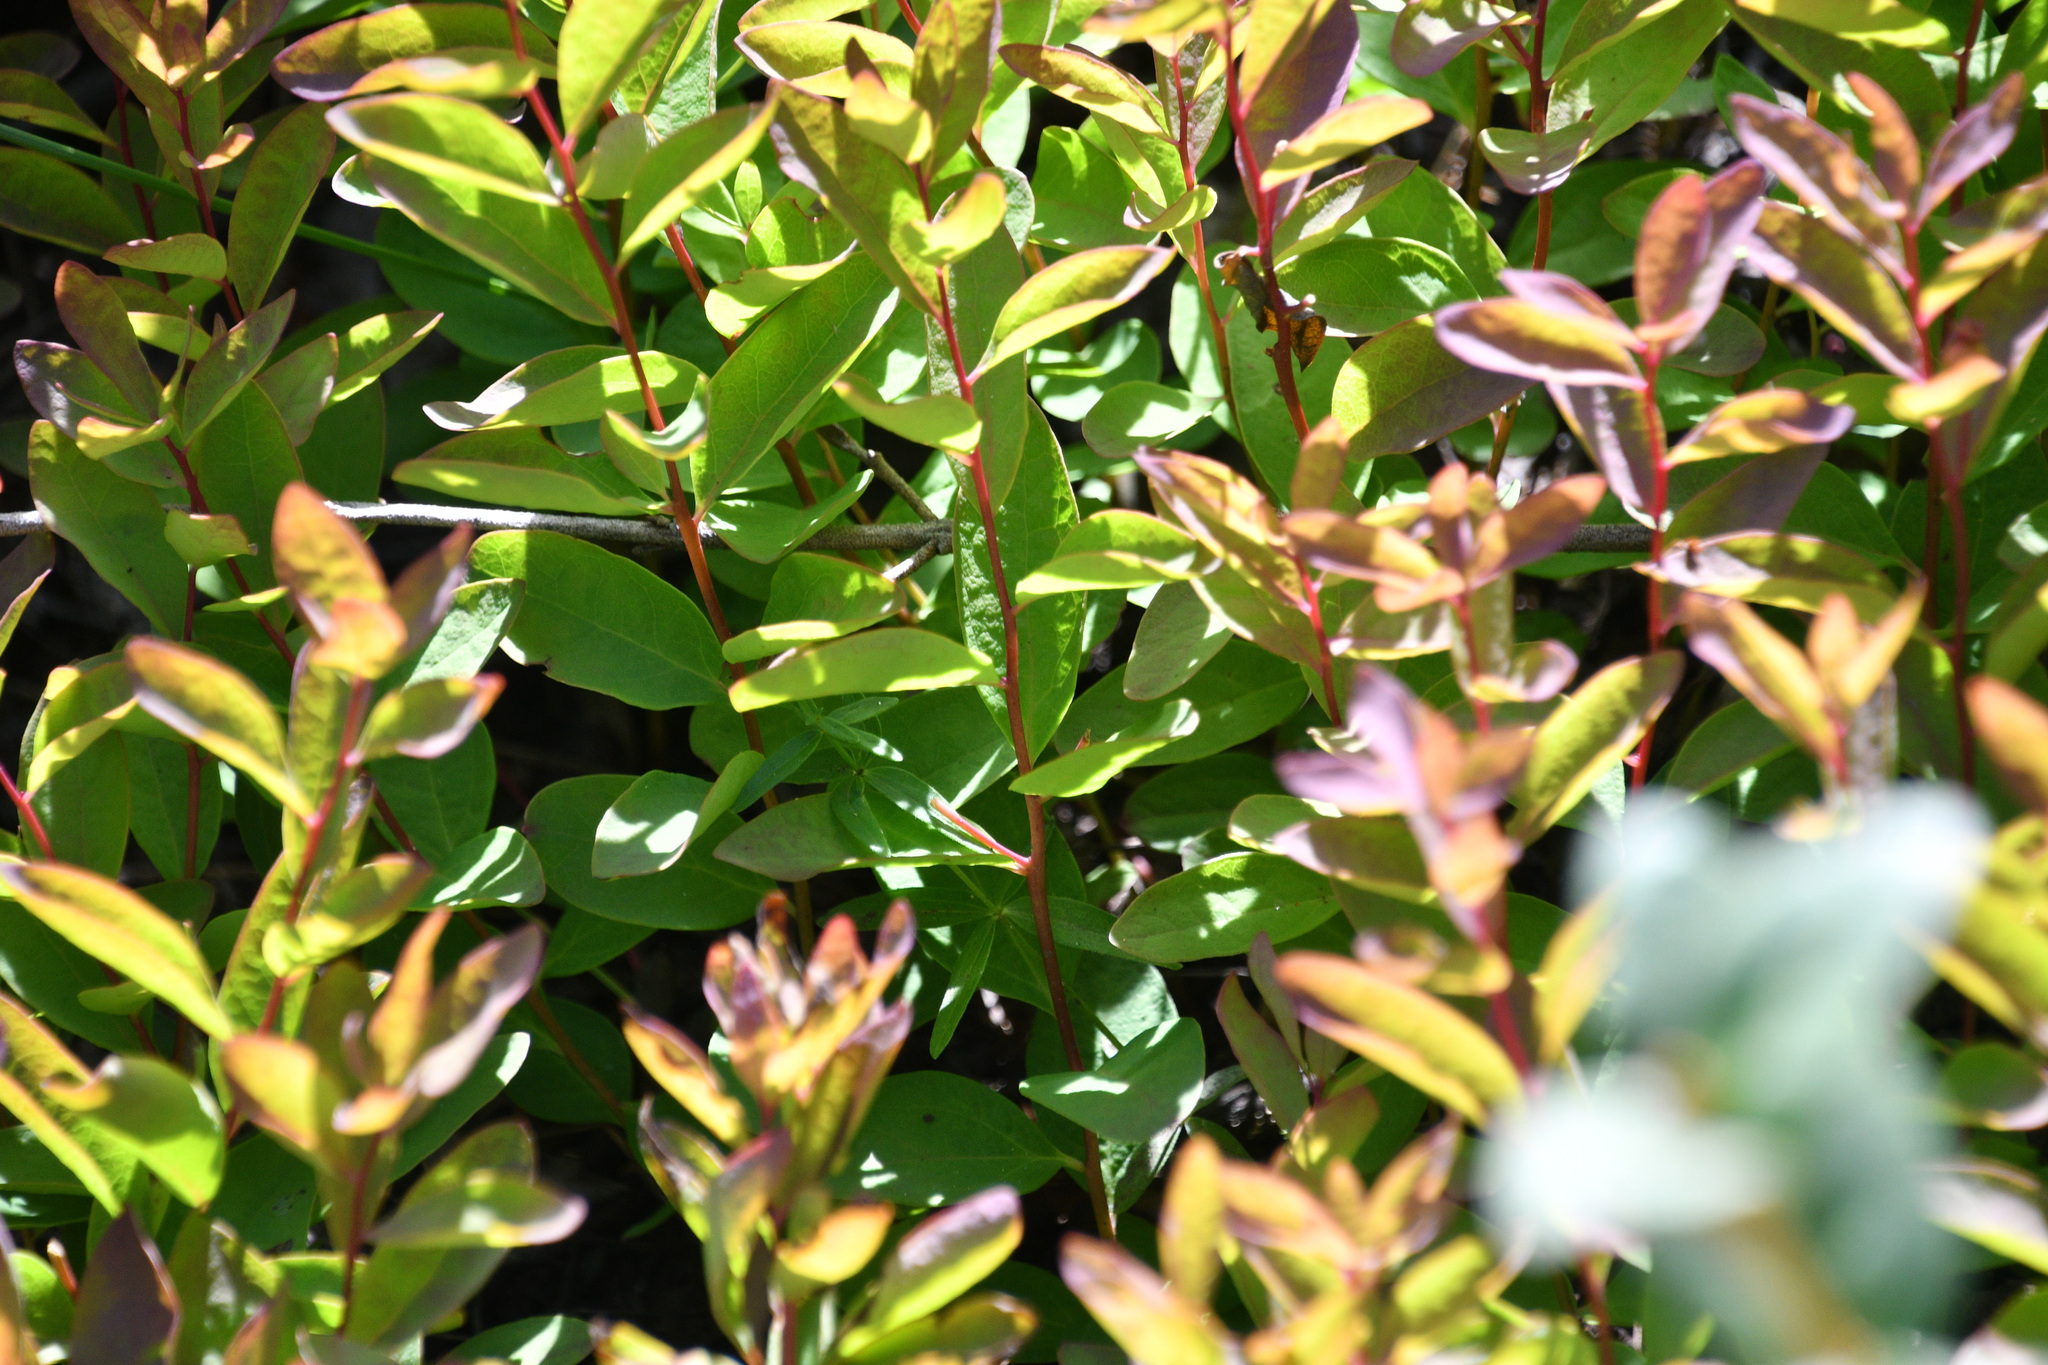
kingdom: Plantae
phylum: Tracheophyta
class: Magnoliopsida
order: Santalales
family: Comandraceae
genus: Geocaulon
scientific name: Geocaulon lividum
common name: Earthberry
